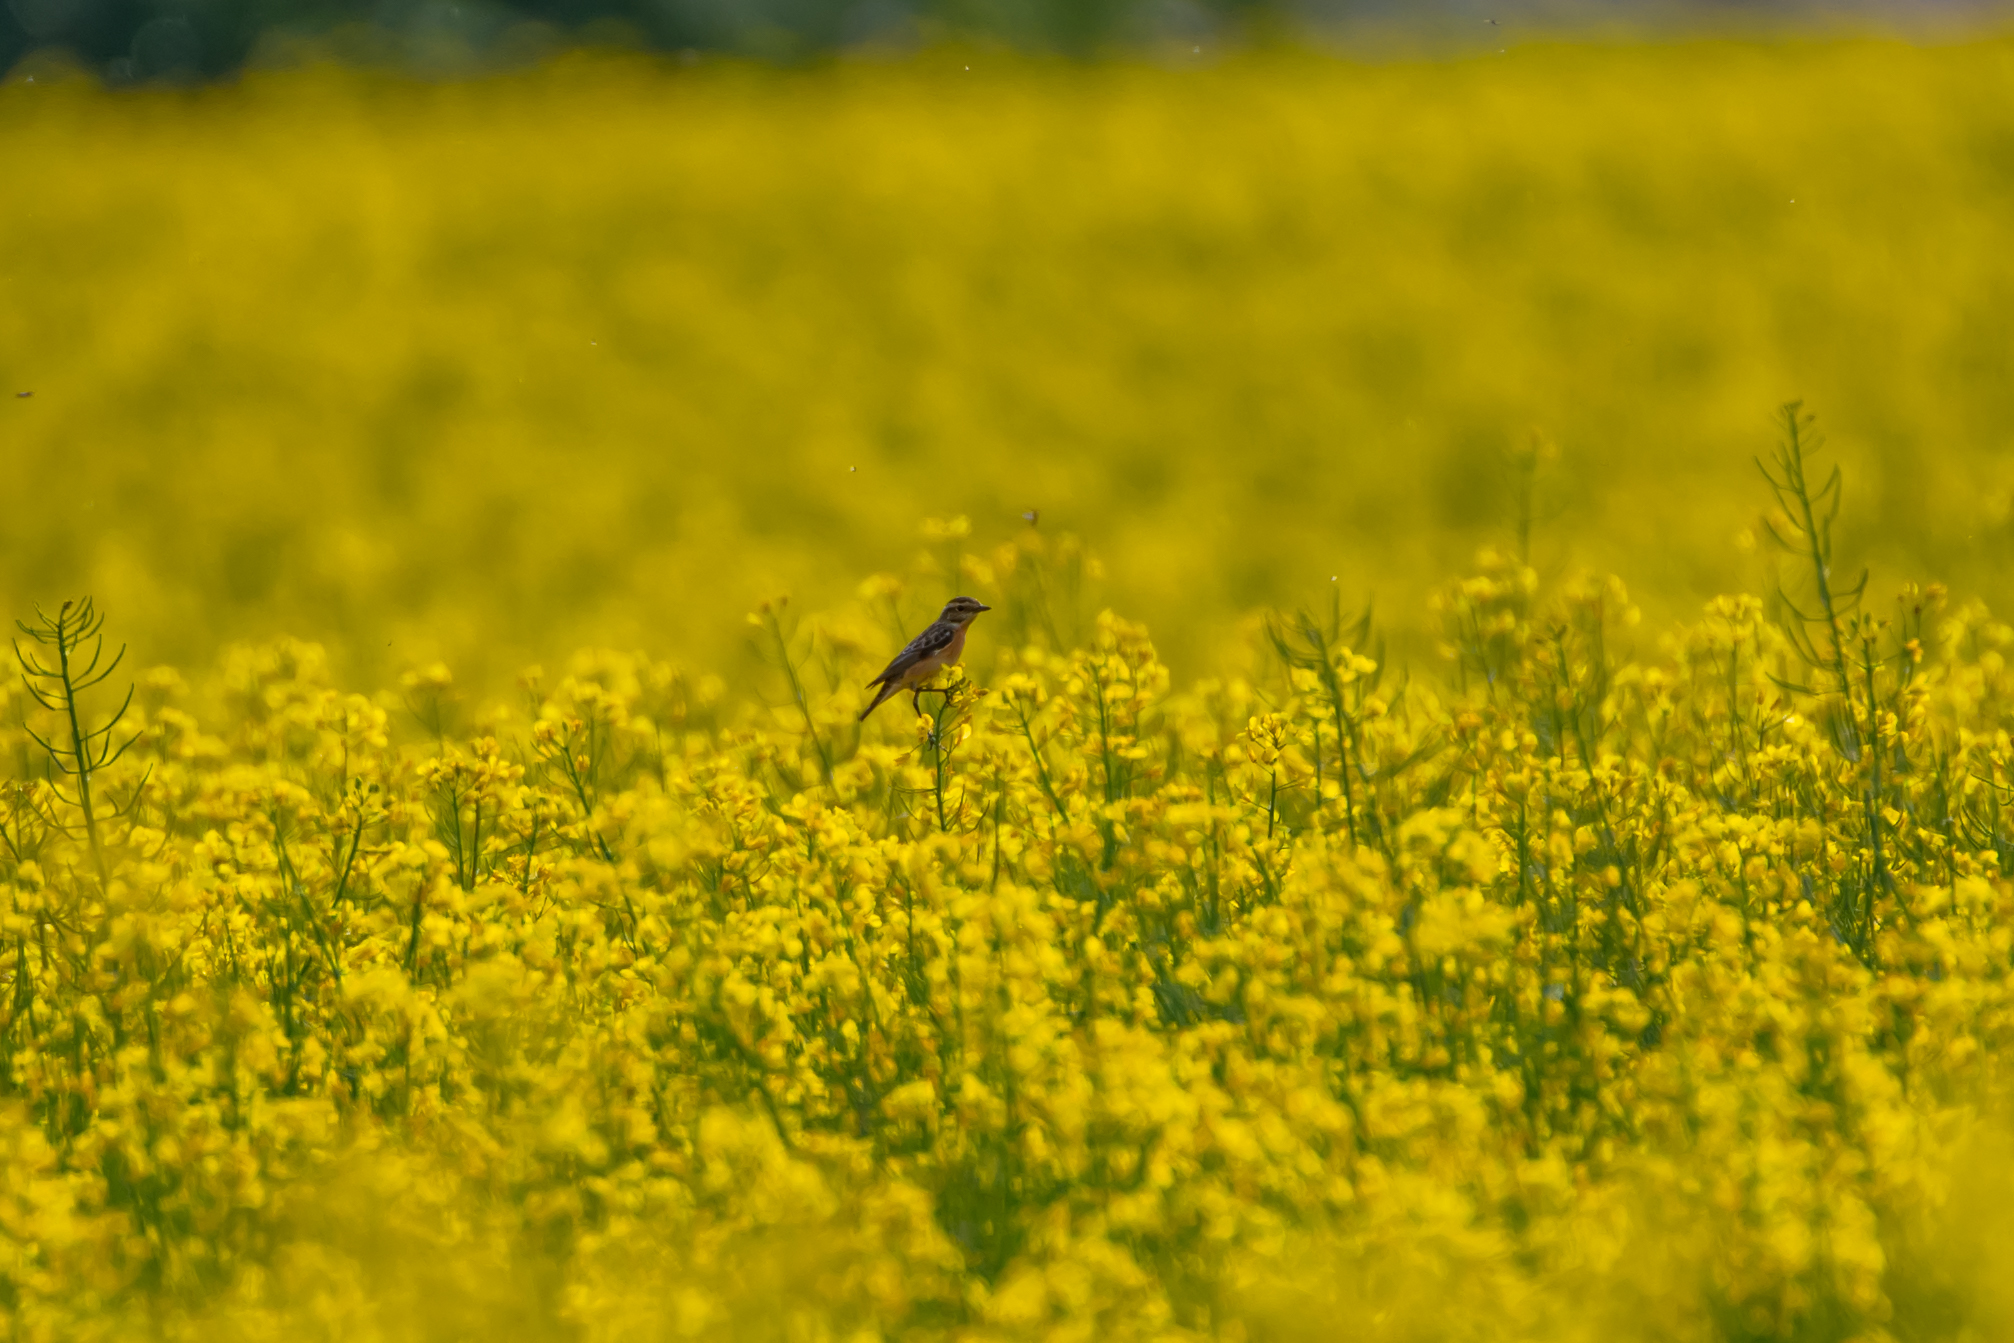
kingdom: Animalia
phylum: Chordata
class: Aves
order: Passeriformes
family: Muscicapidae
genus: Saxicola
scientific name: Saxicola rubetra
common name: Whinchat
